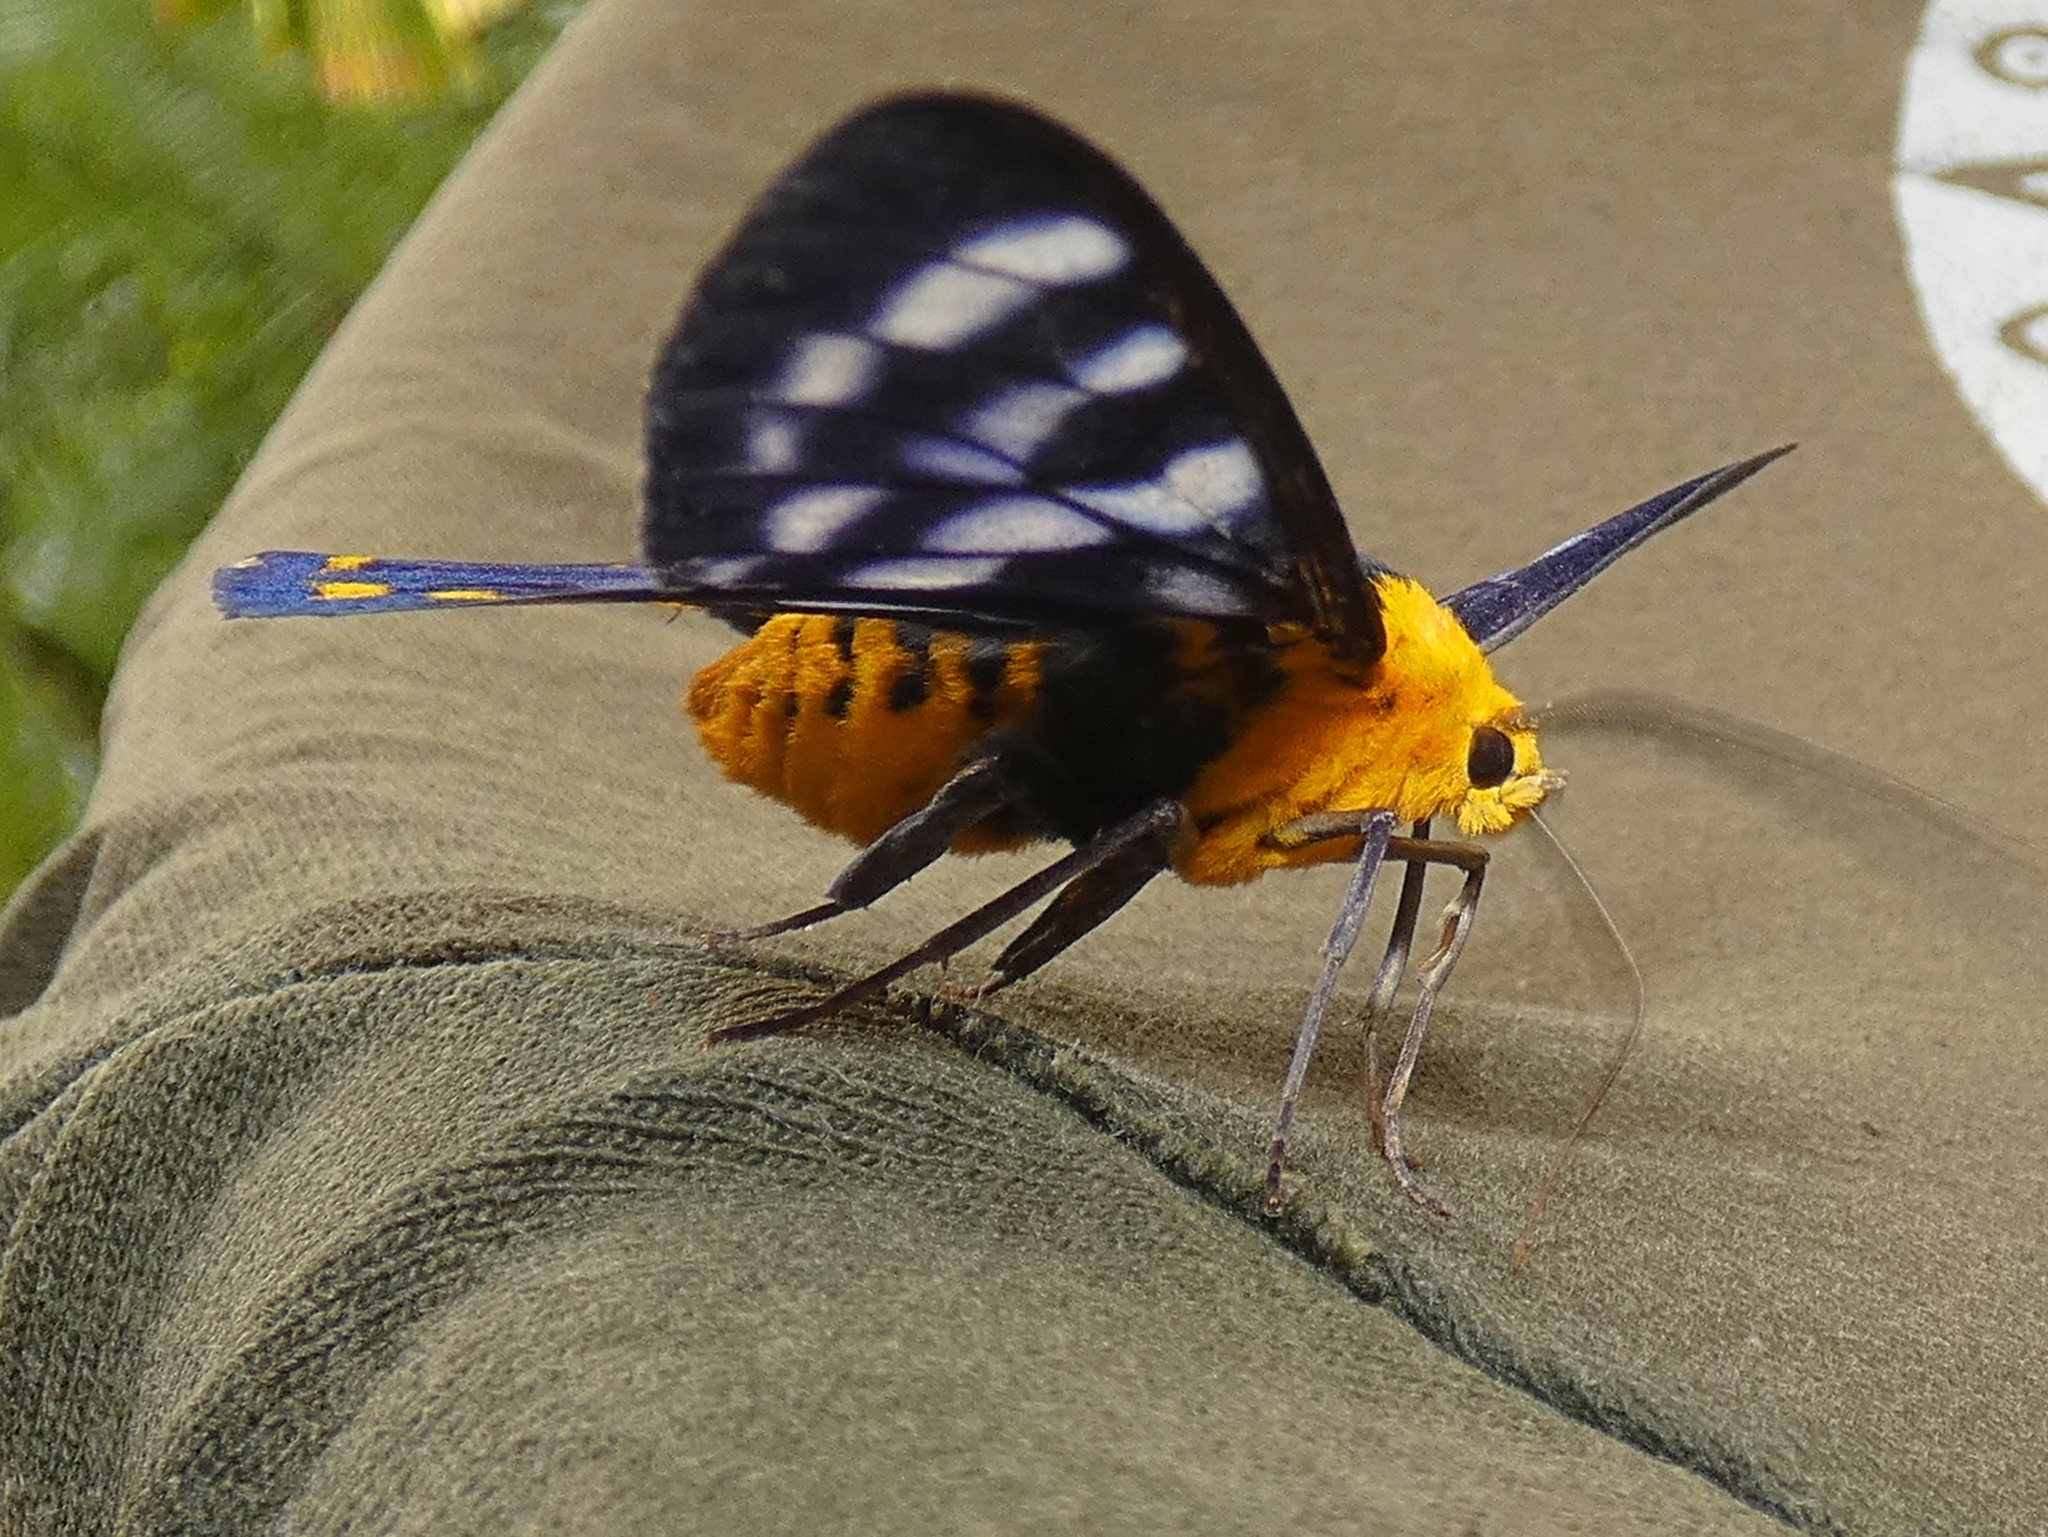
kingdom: Animalia
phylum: Arthropoda
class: Insecta
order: Lepidoptera
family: Geometridae
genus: Dysphania
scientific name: Dysphania numana
